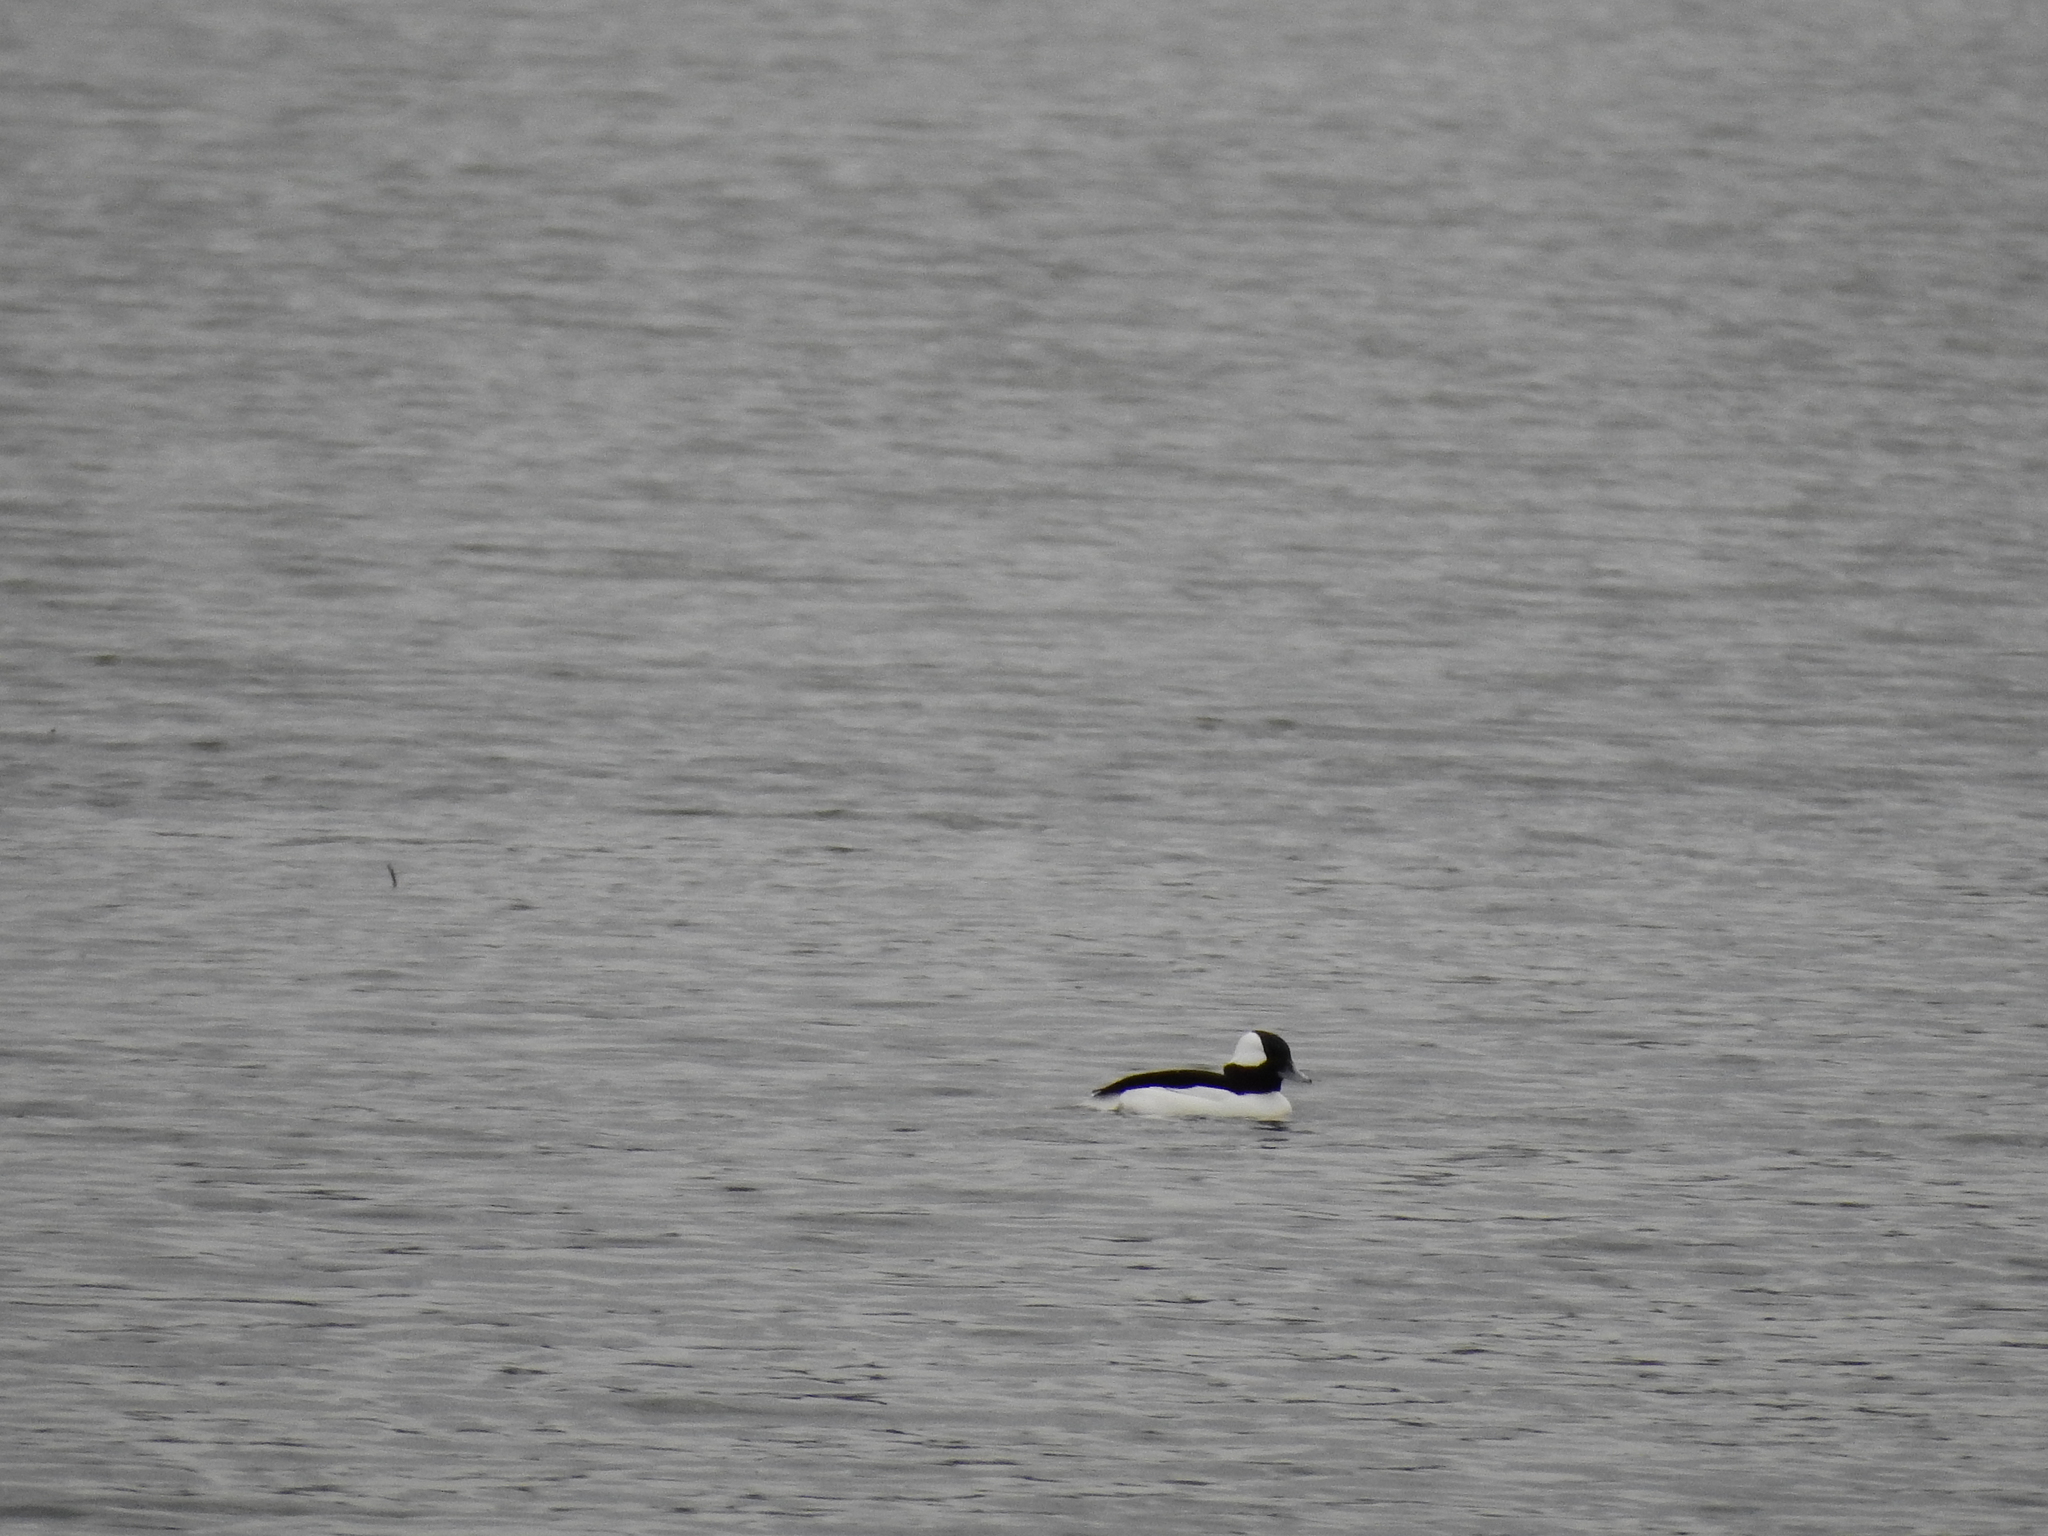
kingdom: Animalia
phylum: Chordata
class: Aves
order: Anseriformes
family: Anatidae
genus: Bucephala
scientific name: Bucephala albeola
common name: Bufflehead
